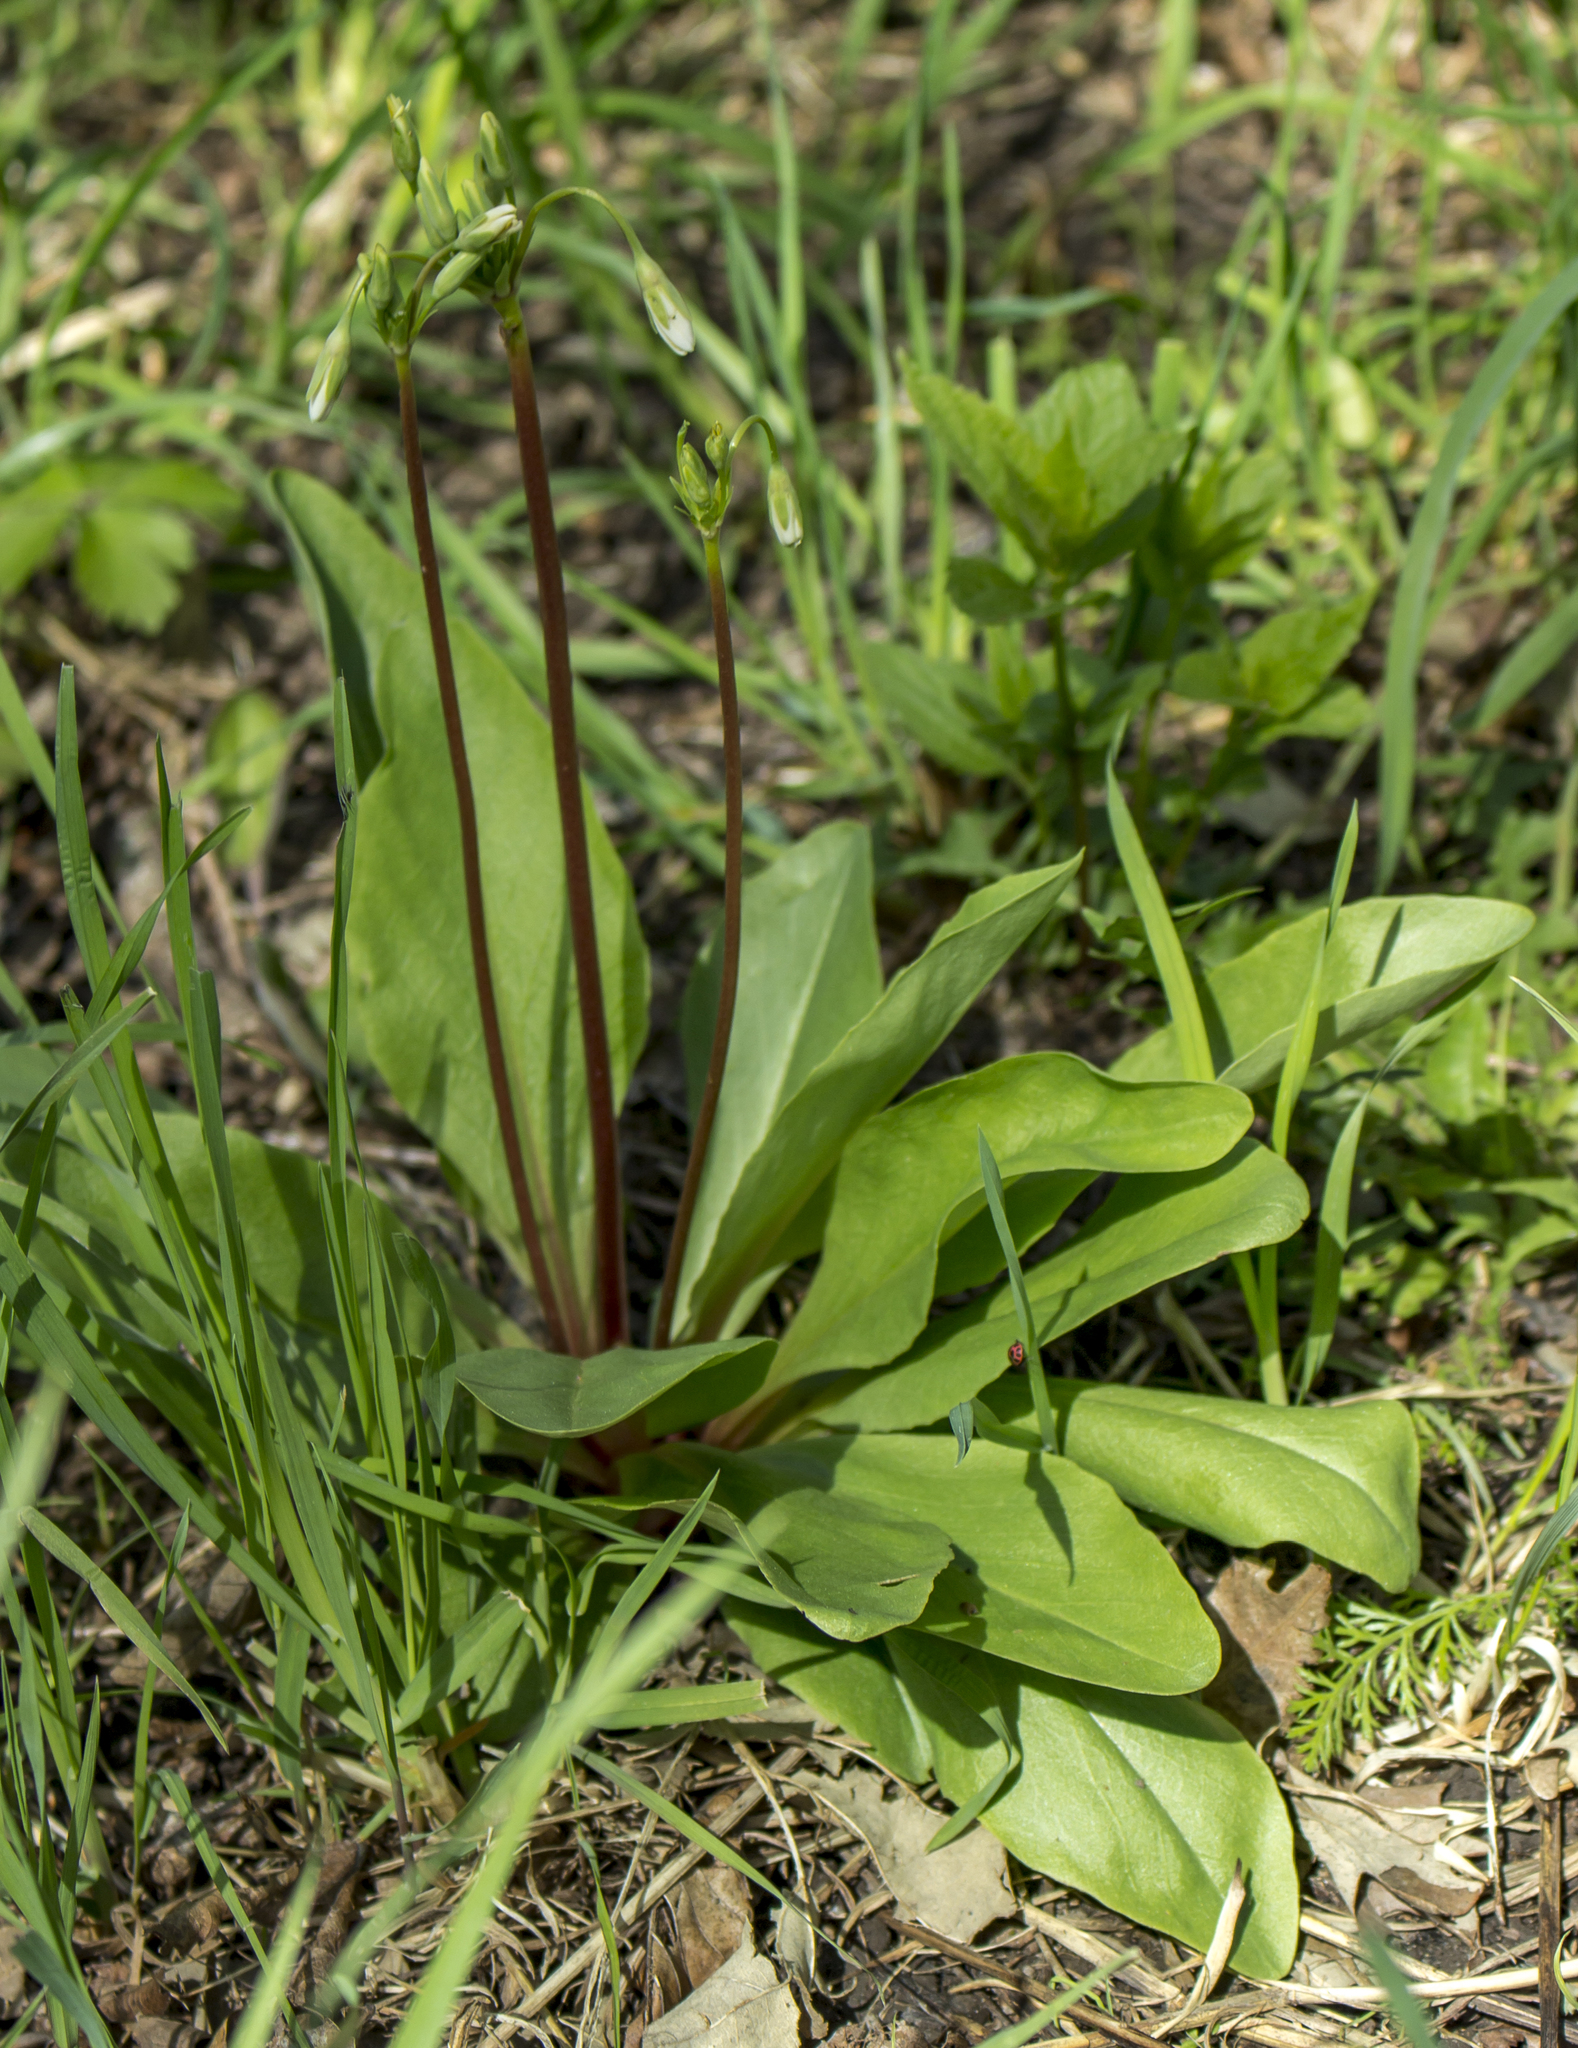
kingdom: Plantae
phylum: Tracheophyta
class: Magnoliopsida
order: Ericales
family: Primulaceae
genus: Dodecatheon
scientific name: Dodecatheon meadia
